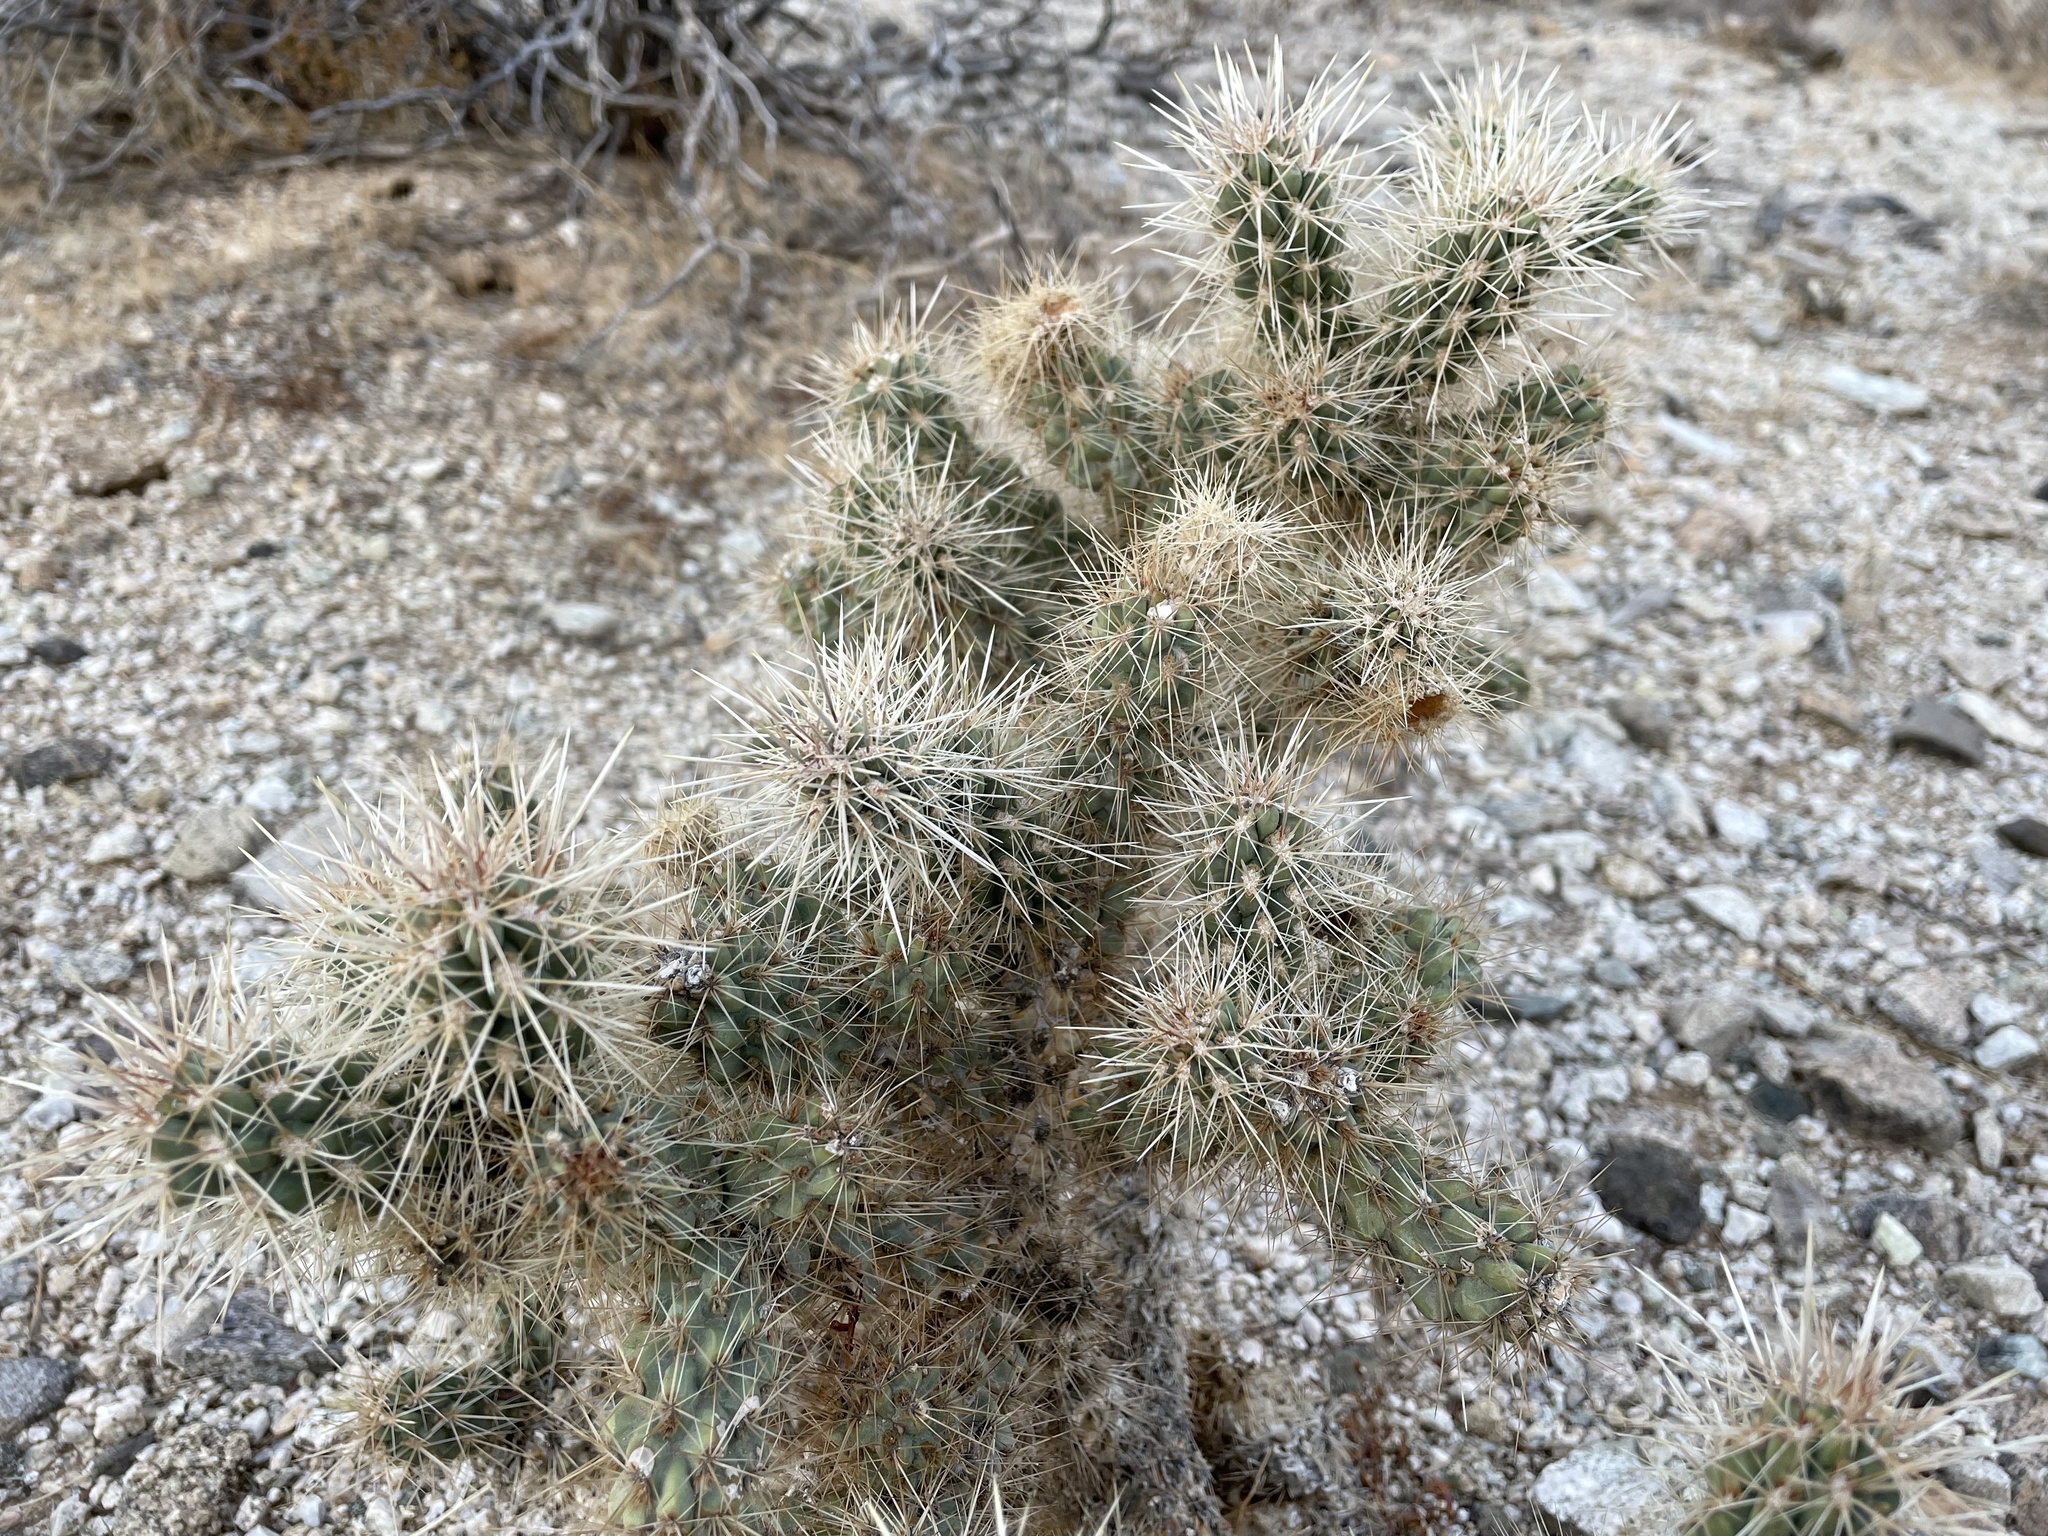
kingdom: Plantae
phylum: Tracheophyta
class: Magnoliopsida
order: Caryophyllales
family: Cactaceae
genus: Cylindropuntia
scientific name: Cylindropuntia echinocarpa
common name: Ground cholla
